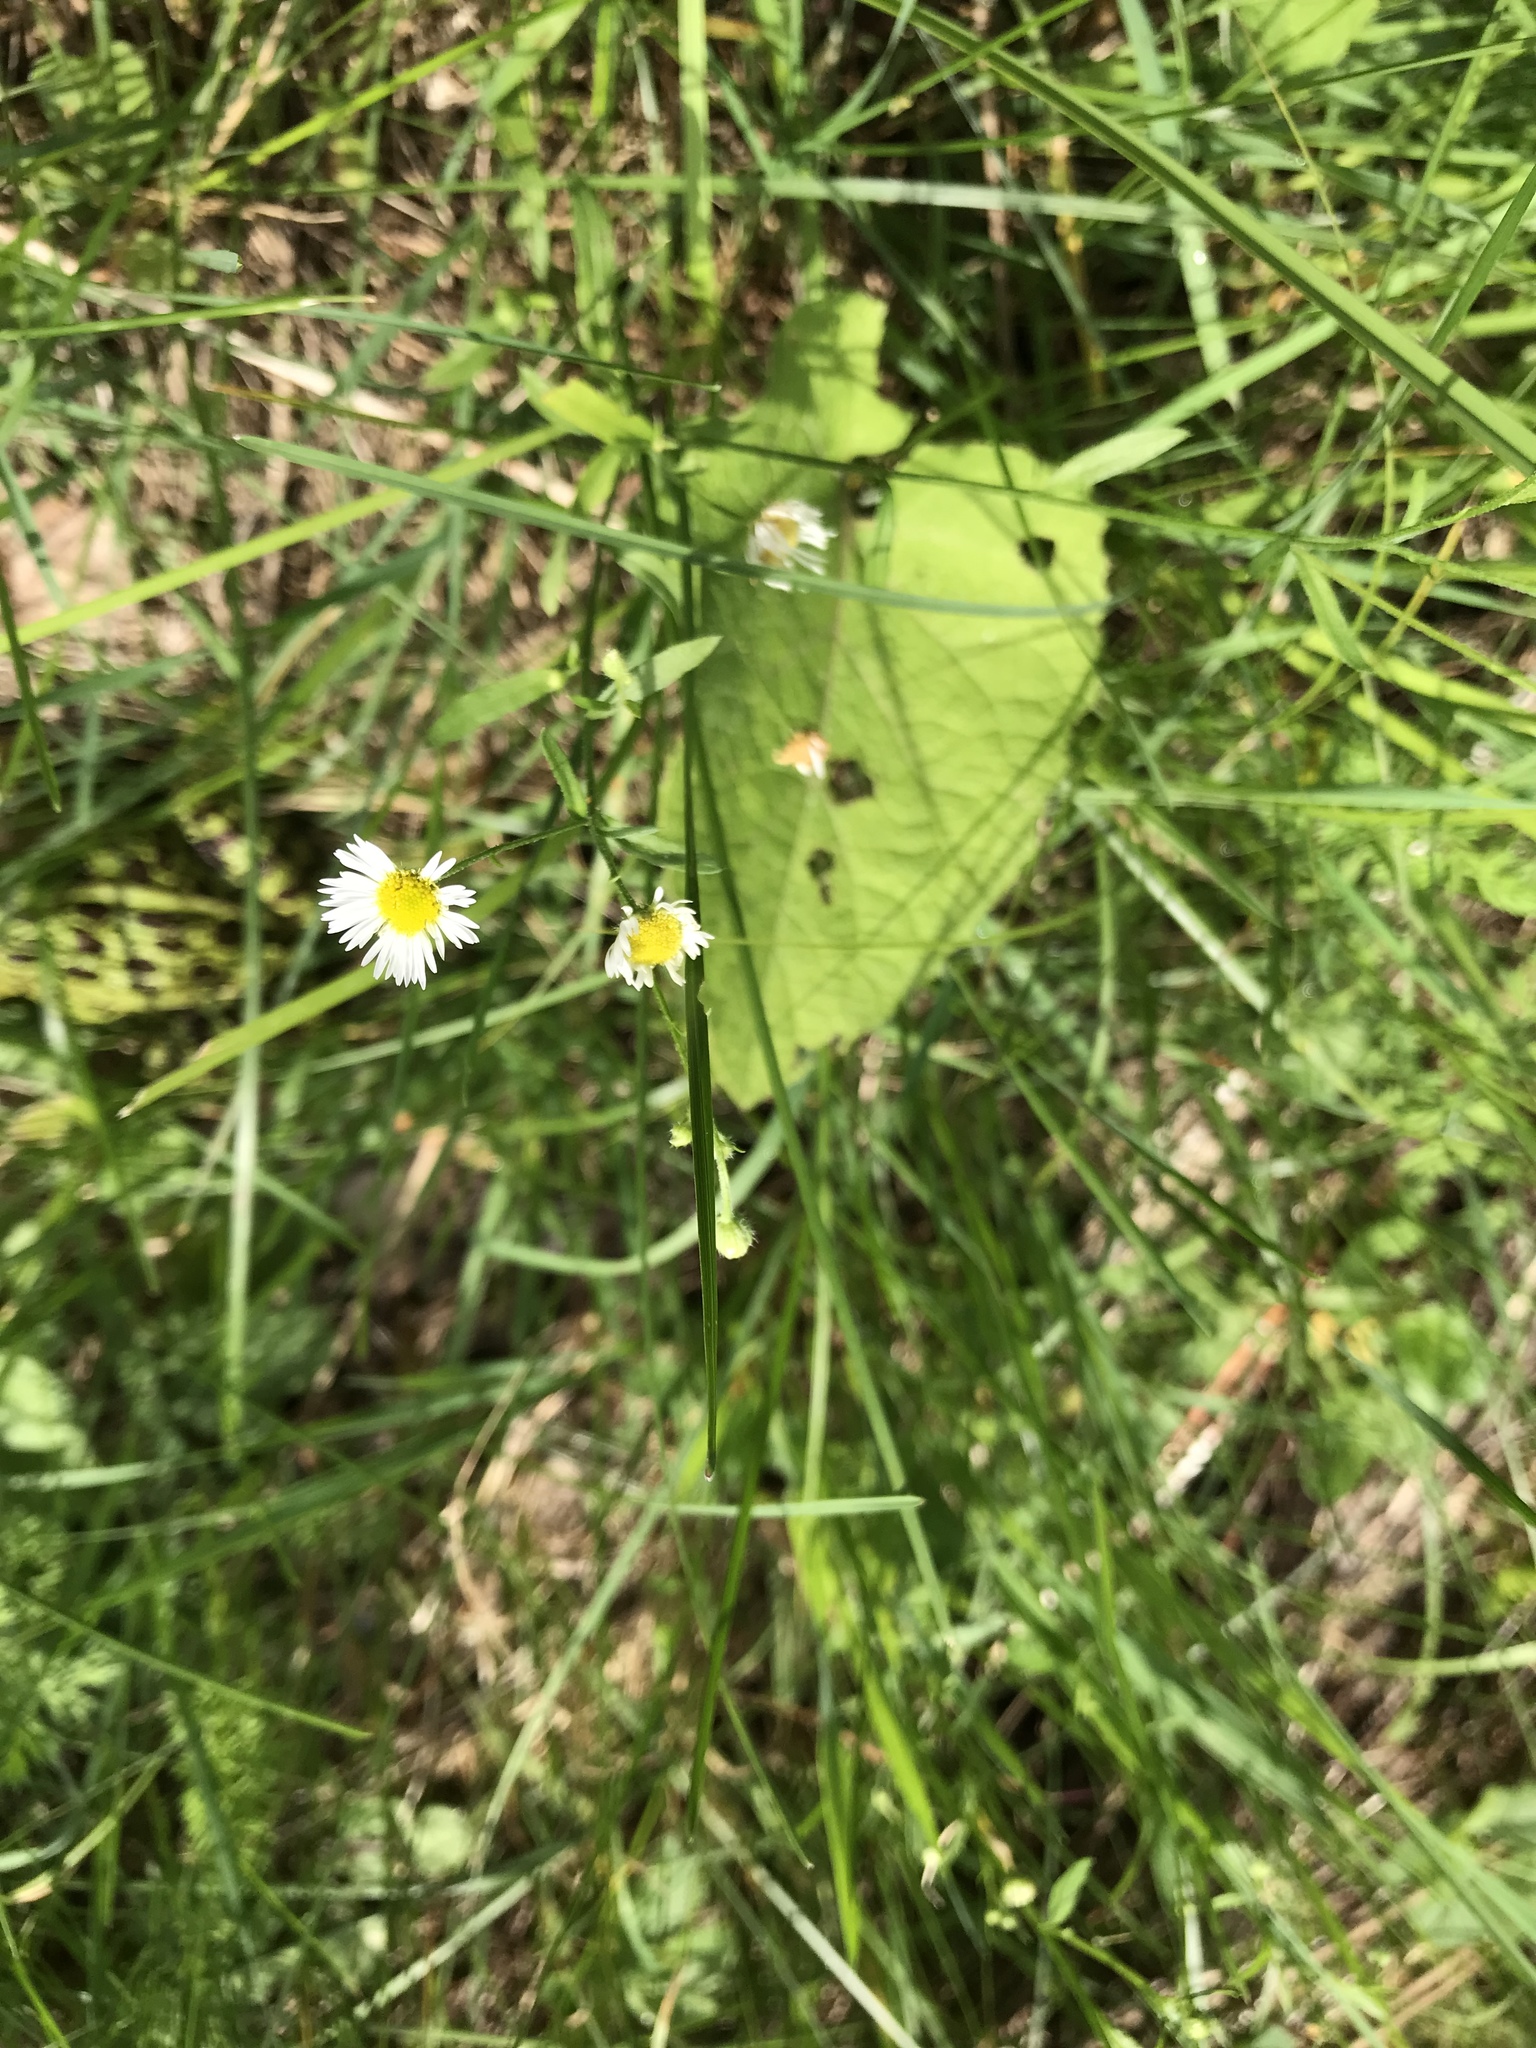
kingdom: Plantae
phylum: Tracheophyta
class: Magnoliopsida
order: Asterales
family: Asteraceae
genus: Erigeron
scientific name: Erigeron strigosus
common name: Common eastern fleabane
